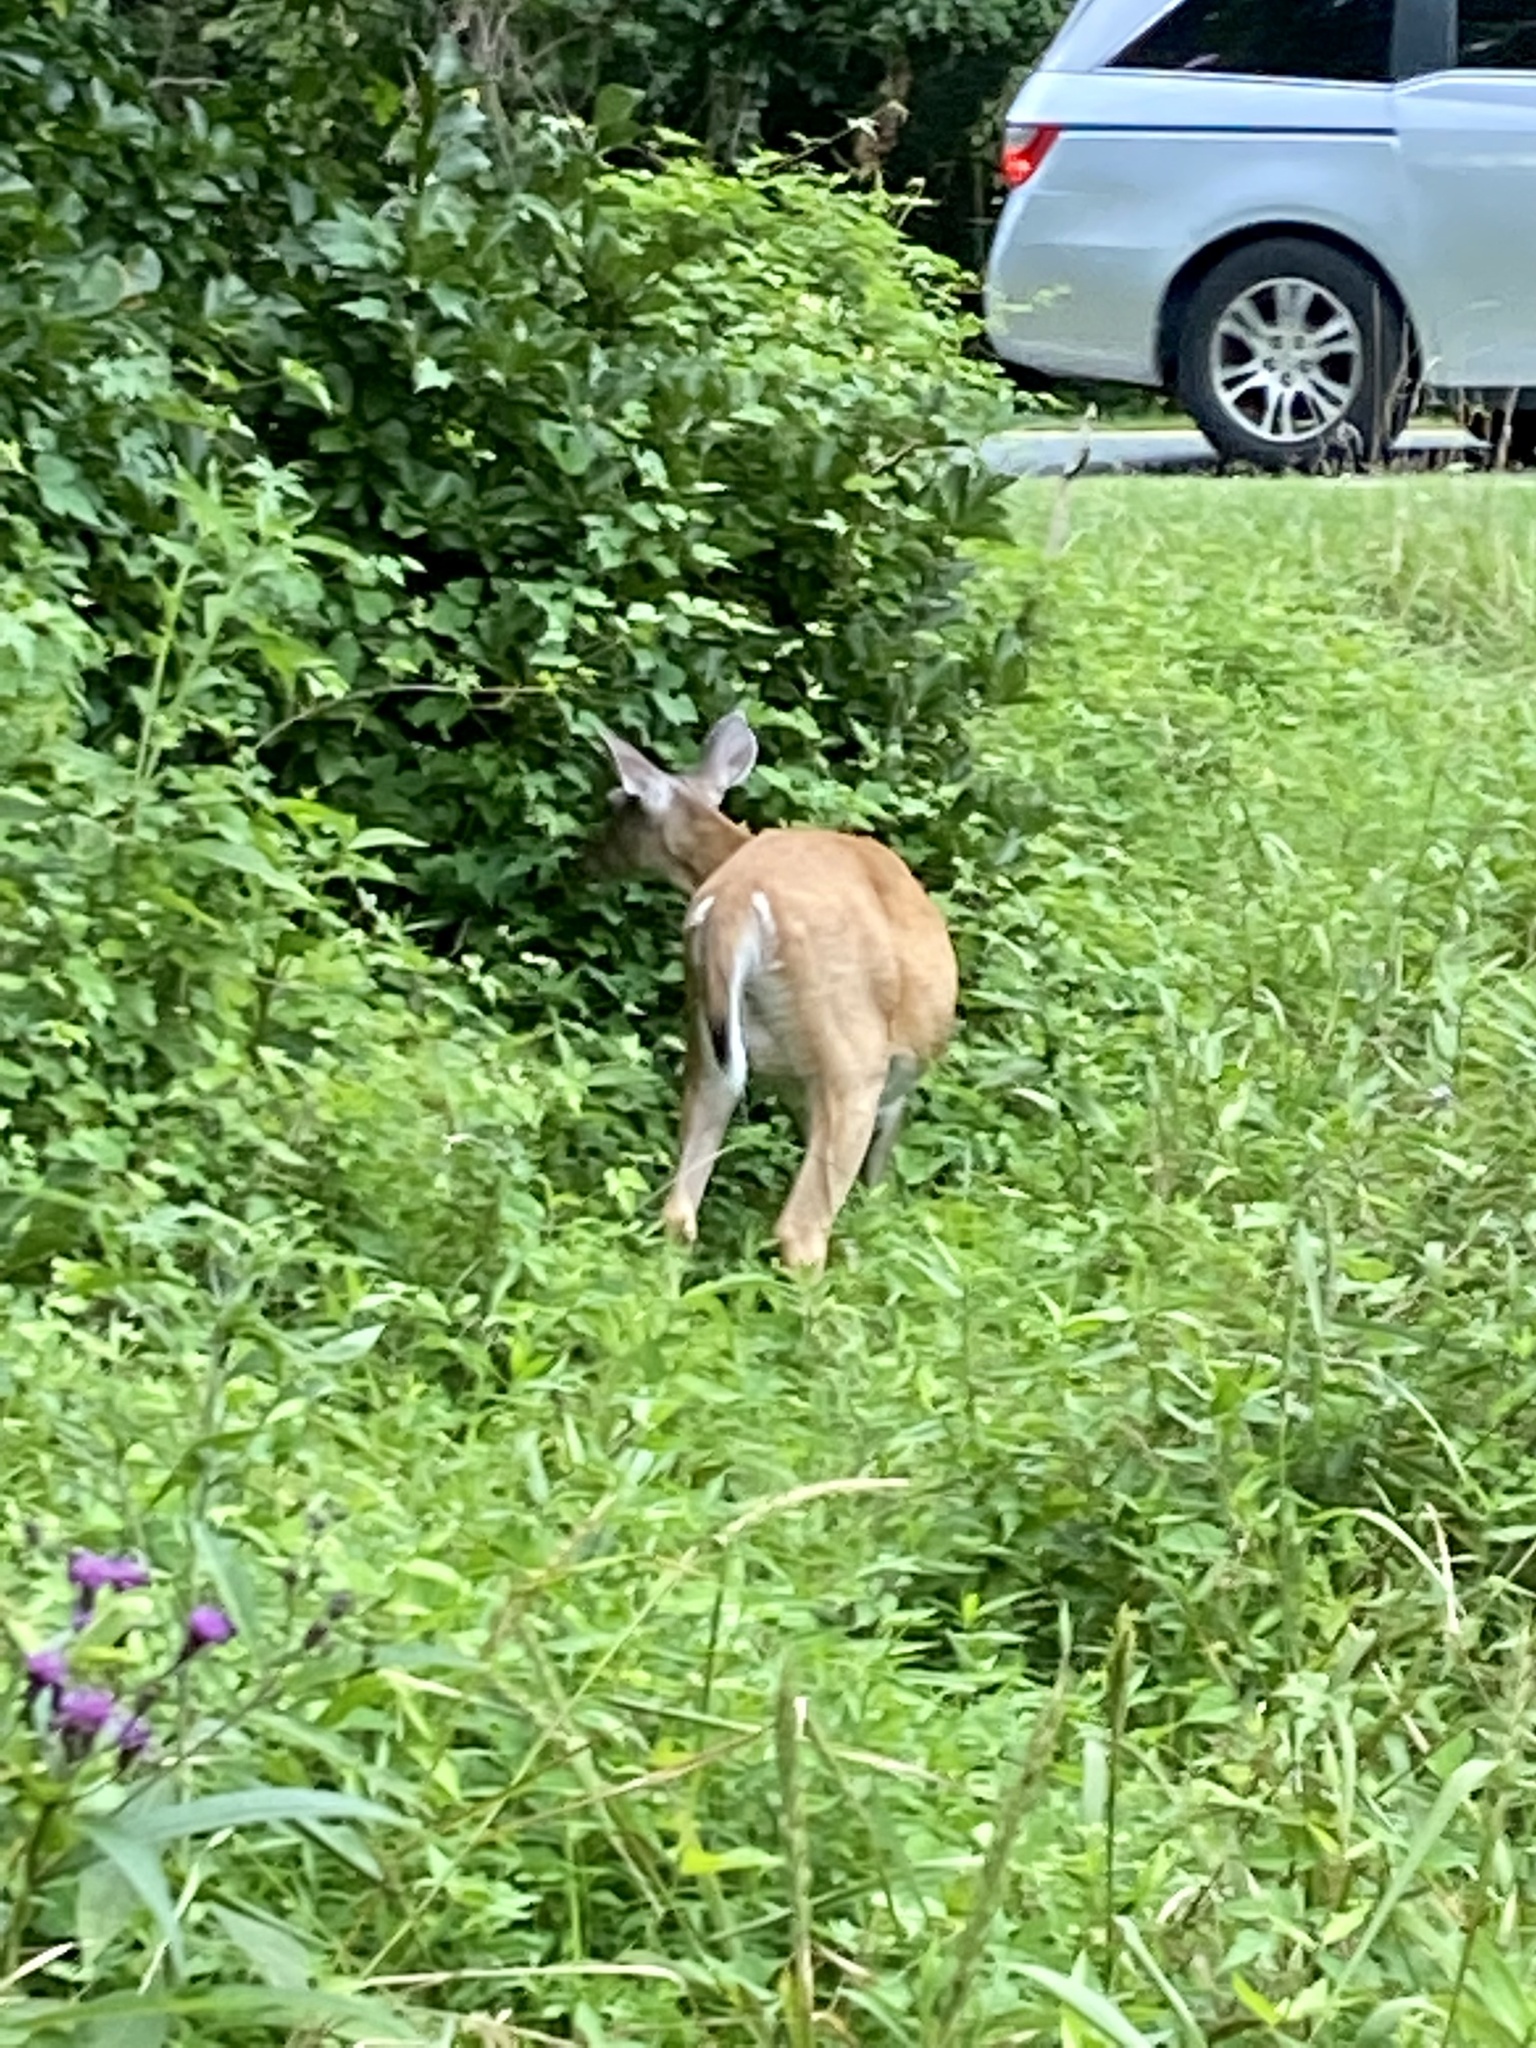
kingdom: Animalia
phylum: Chordata
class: Mammalia
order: Artiodactyla
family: Cervidae
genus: Odocoileus
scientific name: Odocoileus virginianus
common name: White-tailed deer
